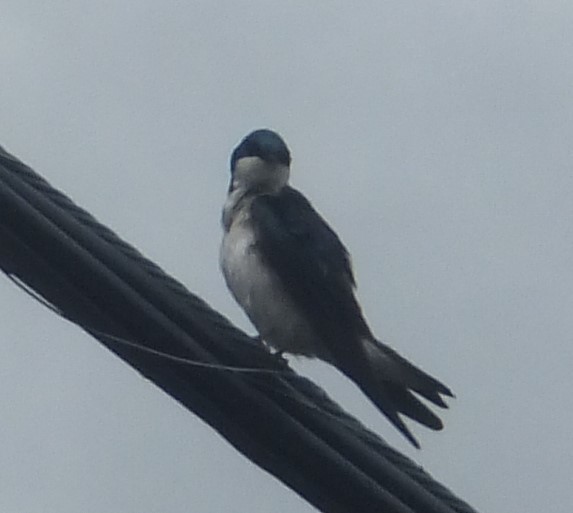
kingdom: Animalia
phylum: Chordata
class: Aves
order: Passeriformes
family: Hirundinidae
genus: Tachycineta
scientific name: Tachycineta bicolor
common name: Tree swallow
